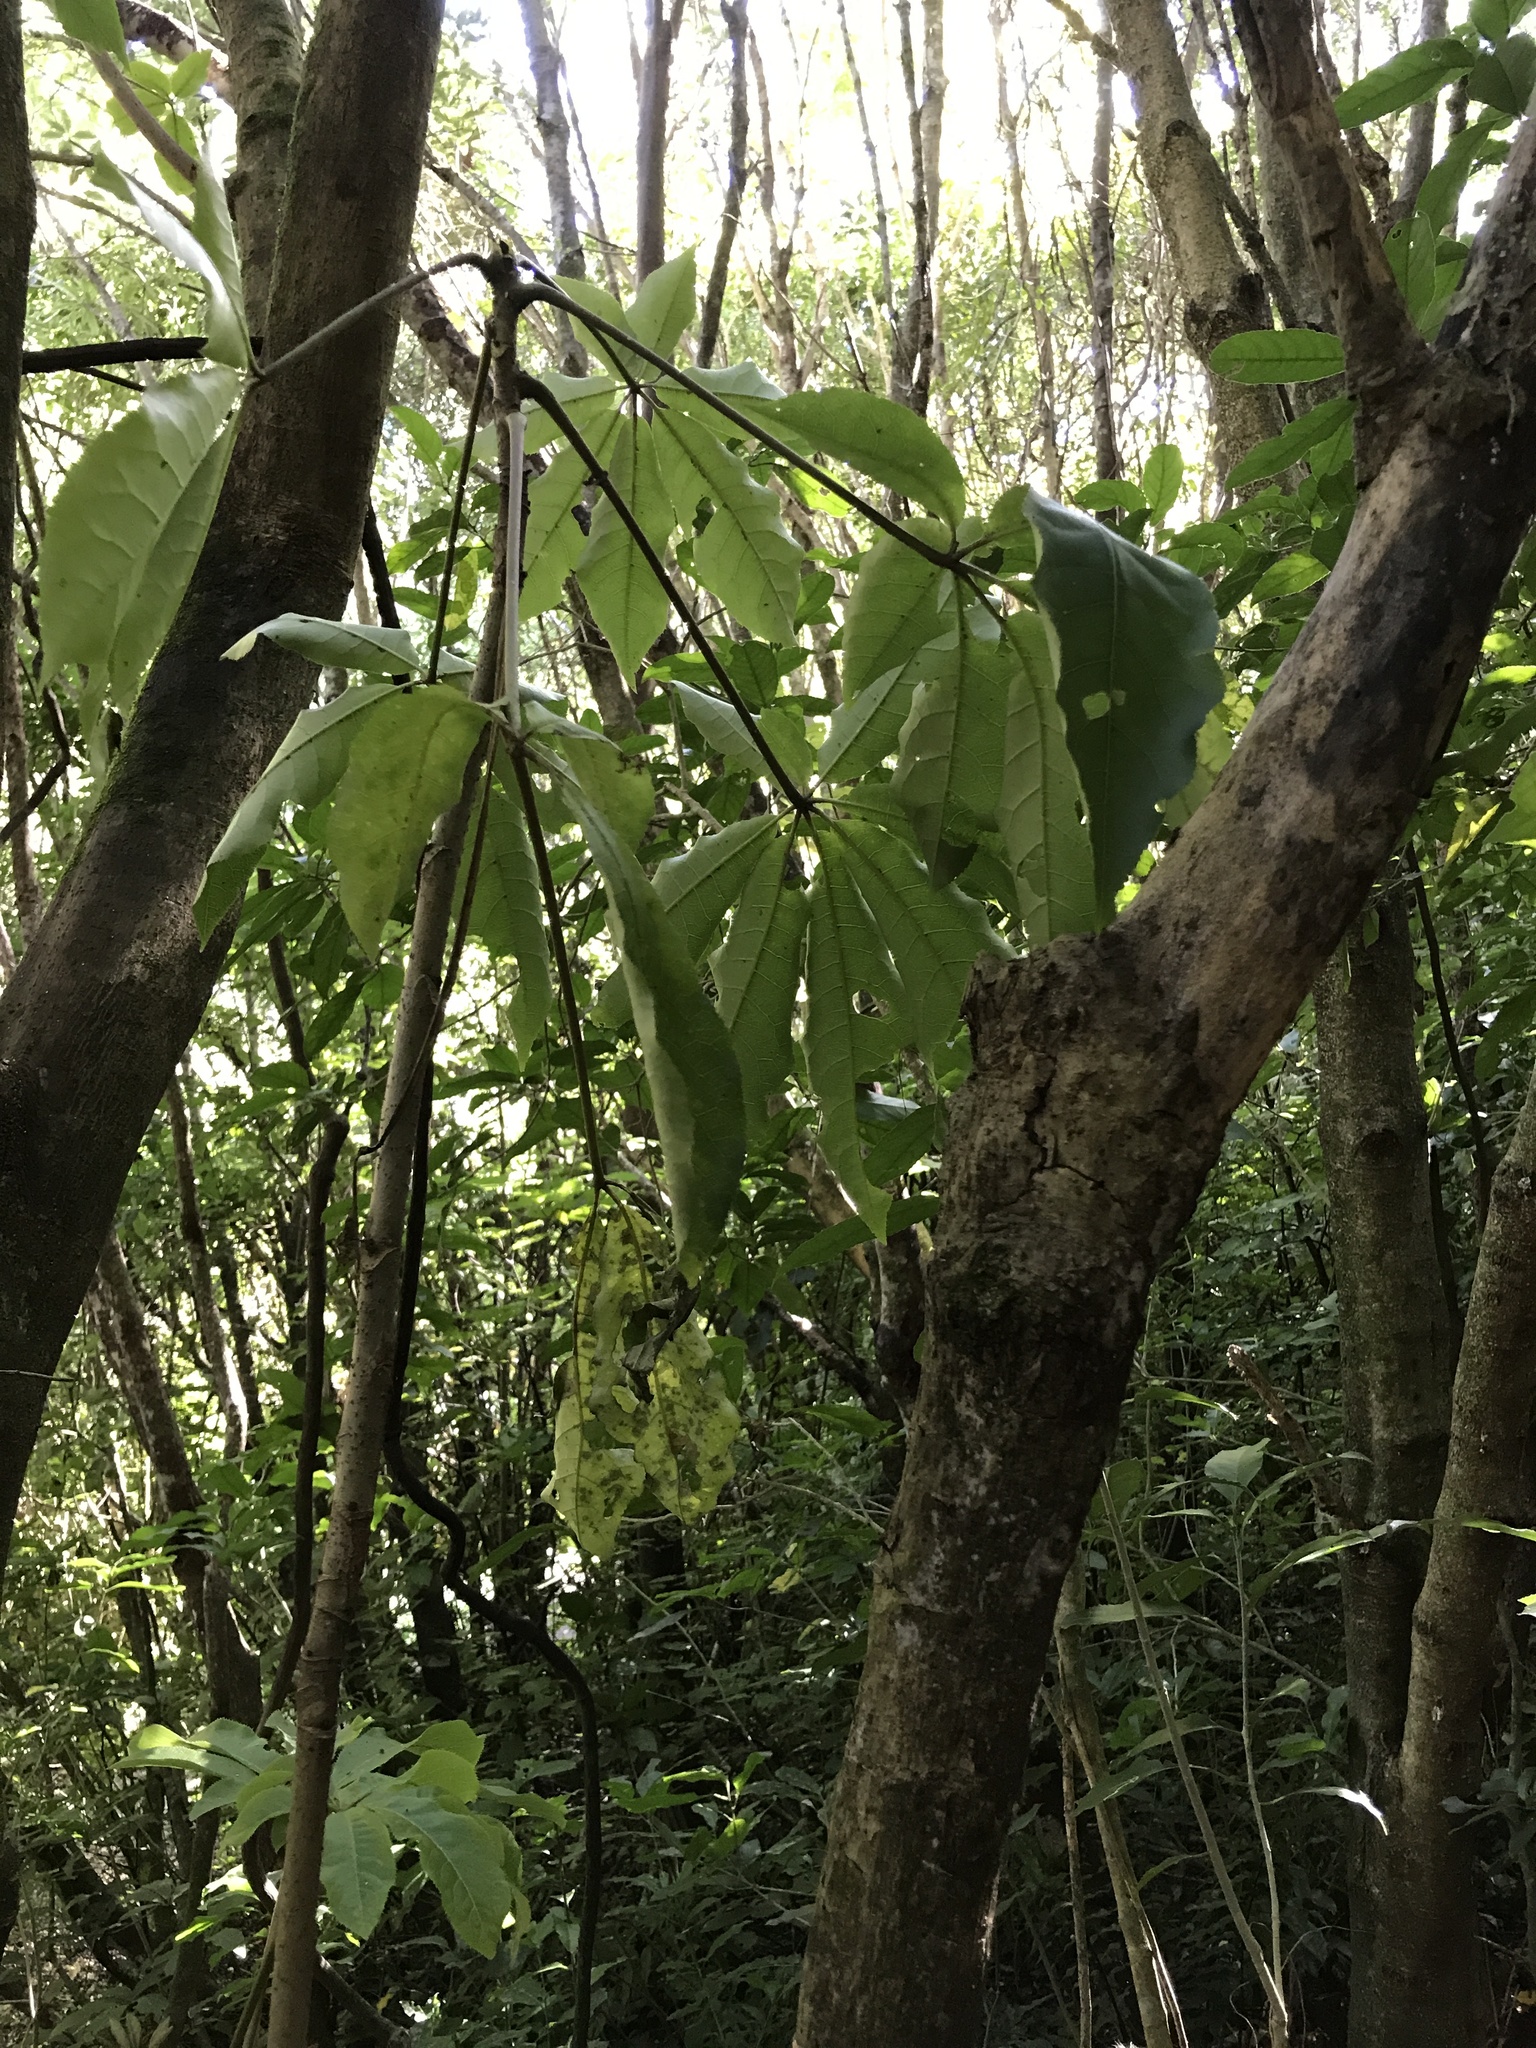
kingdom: Plantae
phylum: Tracheophyta
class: Magnoliopsida
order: Apiales
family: Araliaceae
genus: Schefflera
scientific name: Schefflera digitata
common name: Pate
